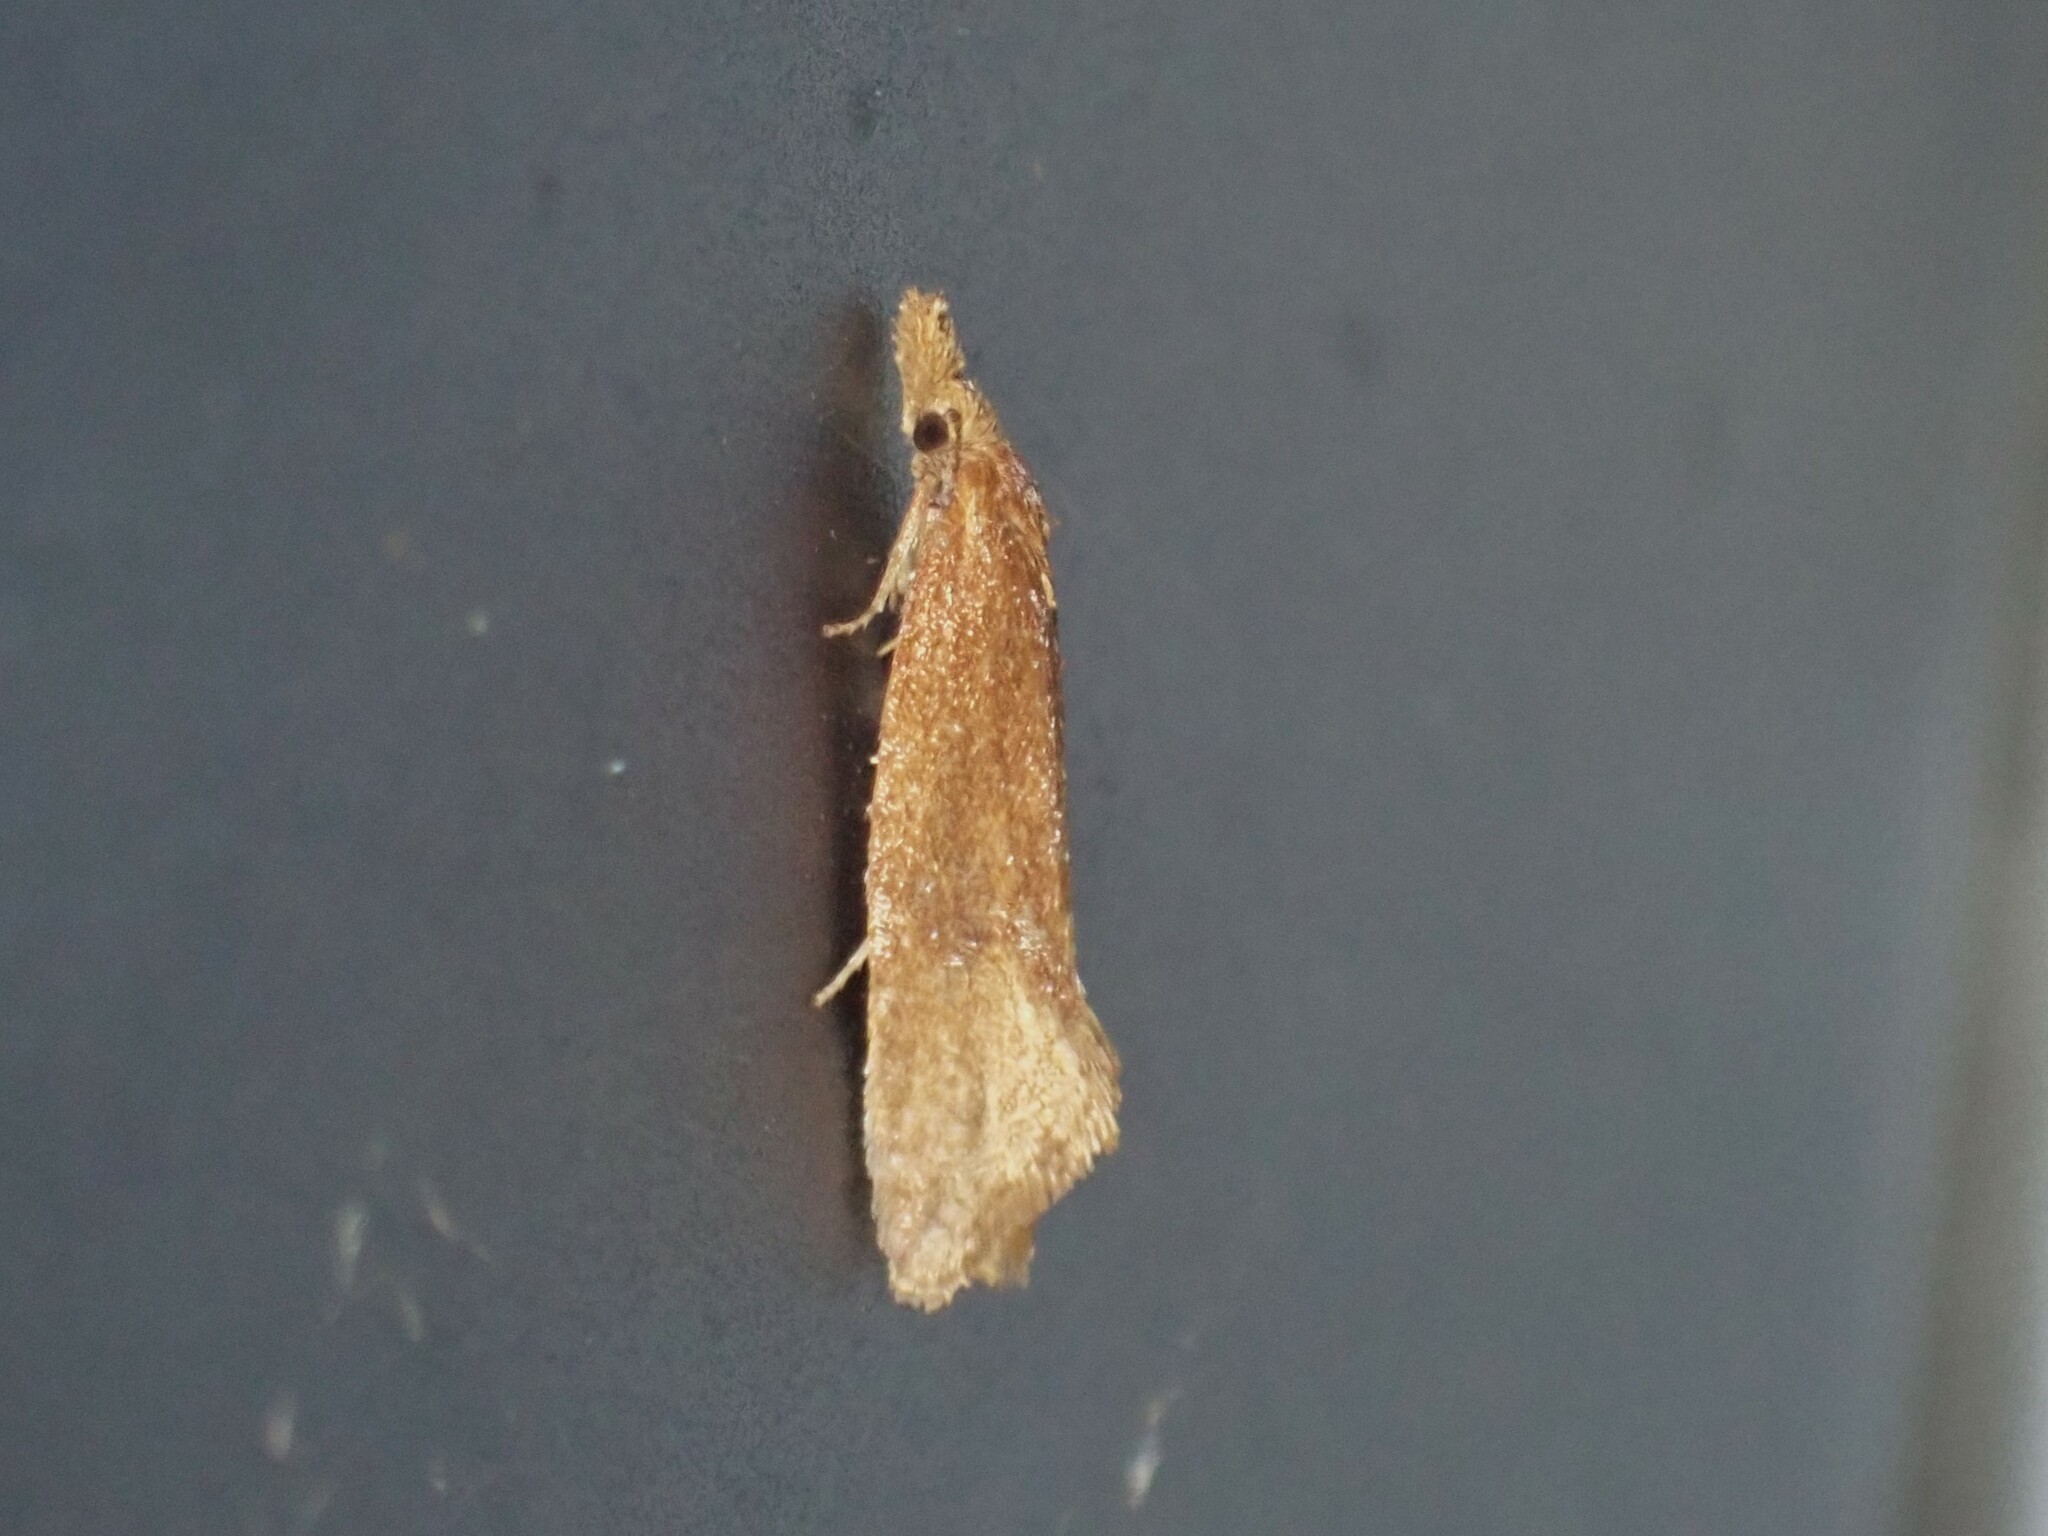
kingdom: Animalia
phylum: Arthropoda
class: Insecta
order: Lepidoptera
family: Tortricidae
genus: Aethes
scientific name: Aethes biscana
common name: Reddish aethes
